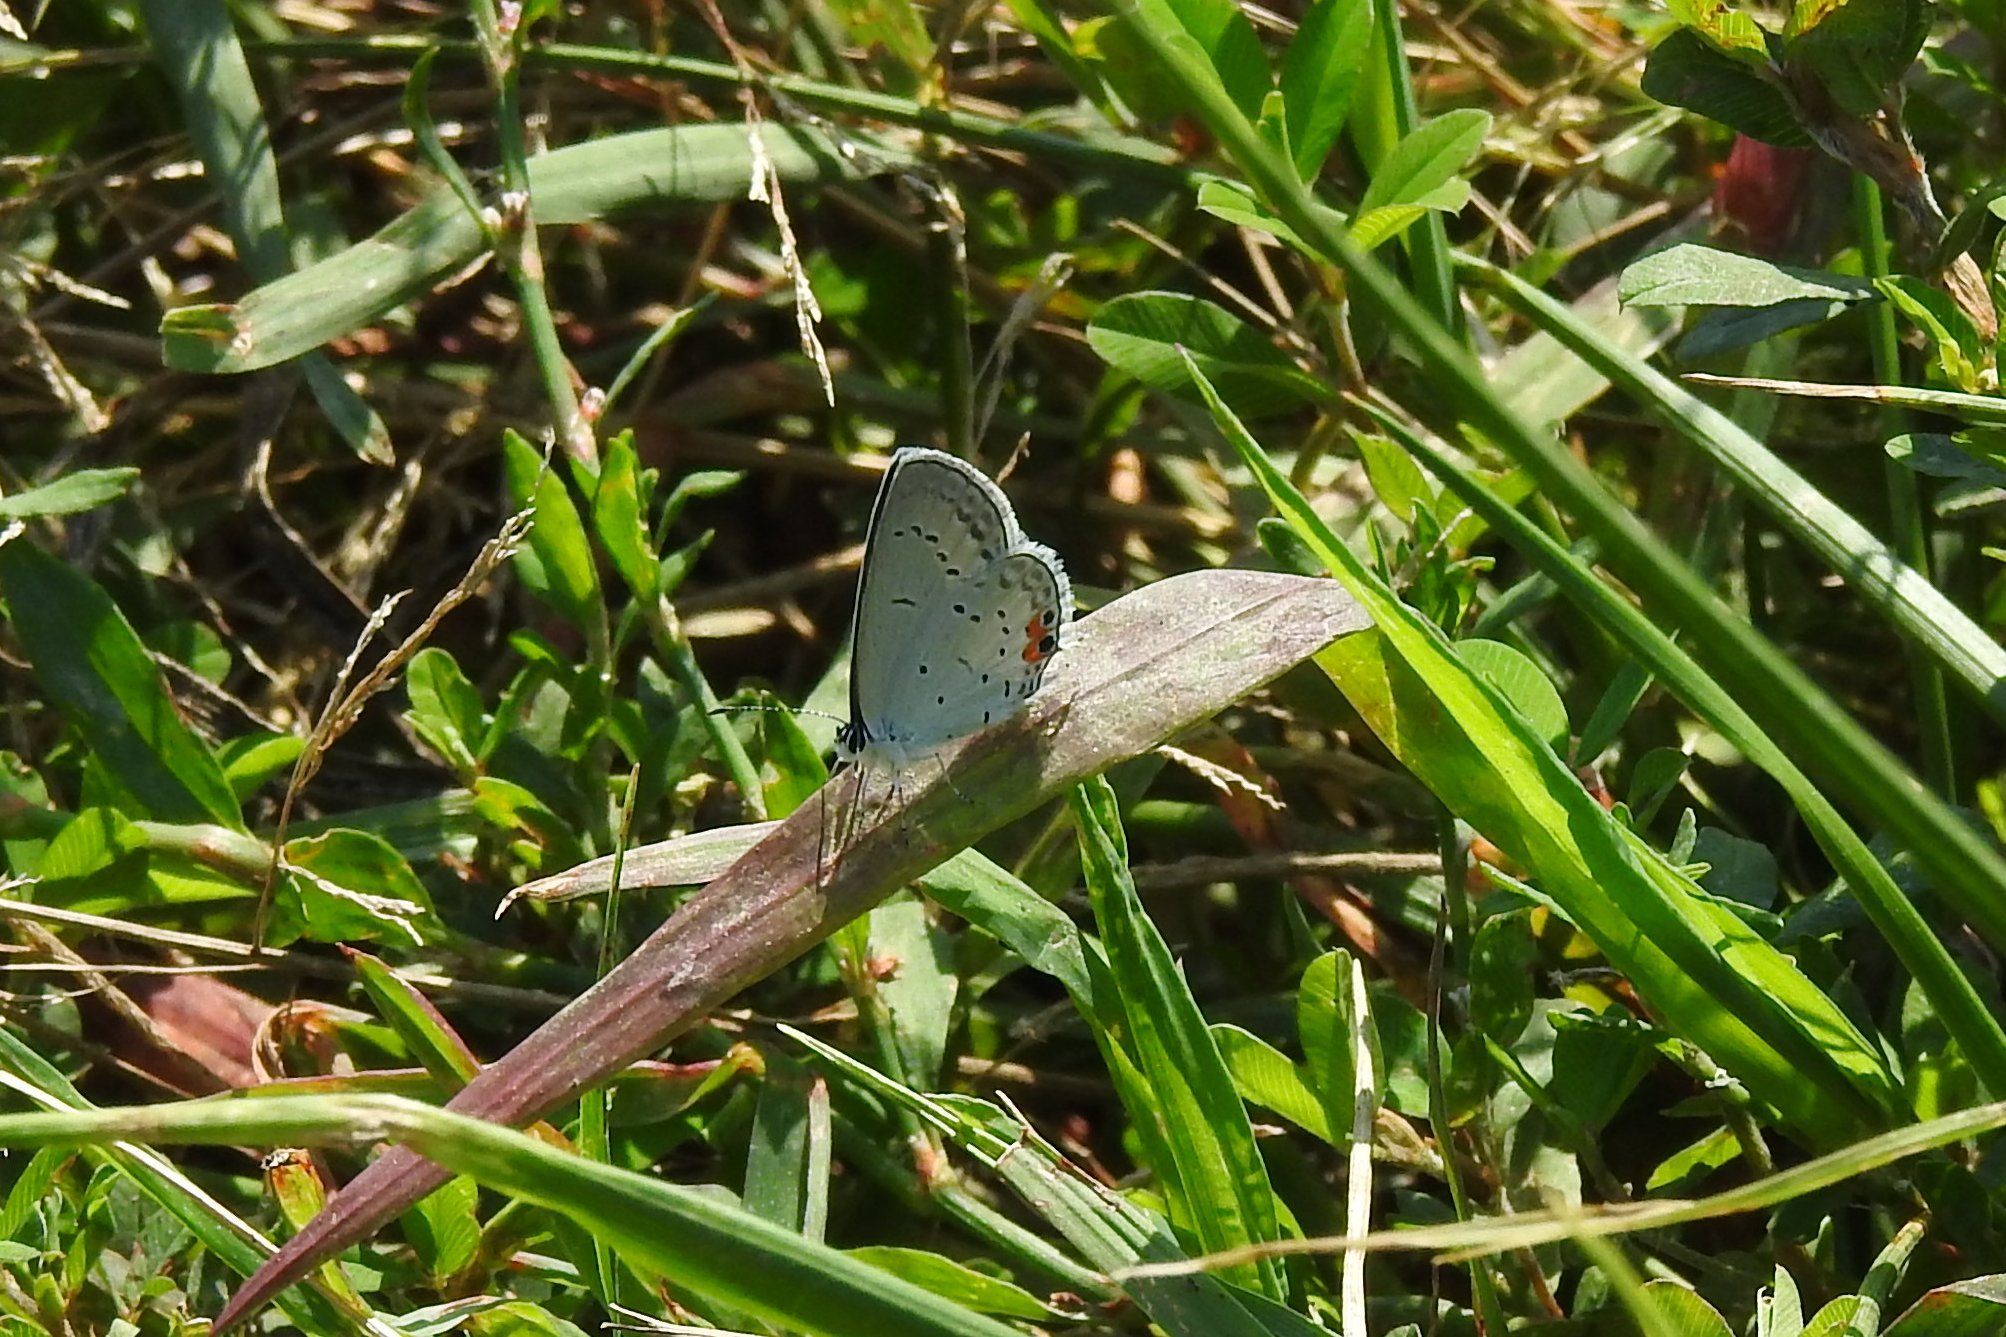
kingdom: Animalia
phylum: Arthropoda
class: Insecta
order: Lepidoptera
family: Lycaenidae
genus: Elkalyce
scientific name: Elkalyce comyntas
